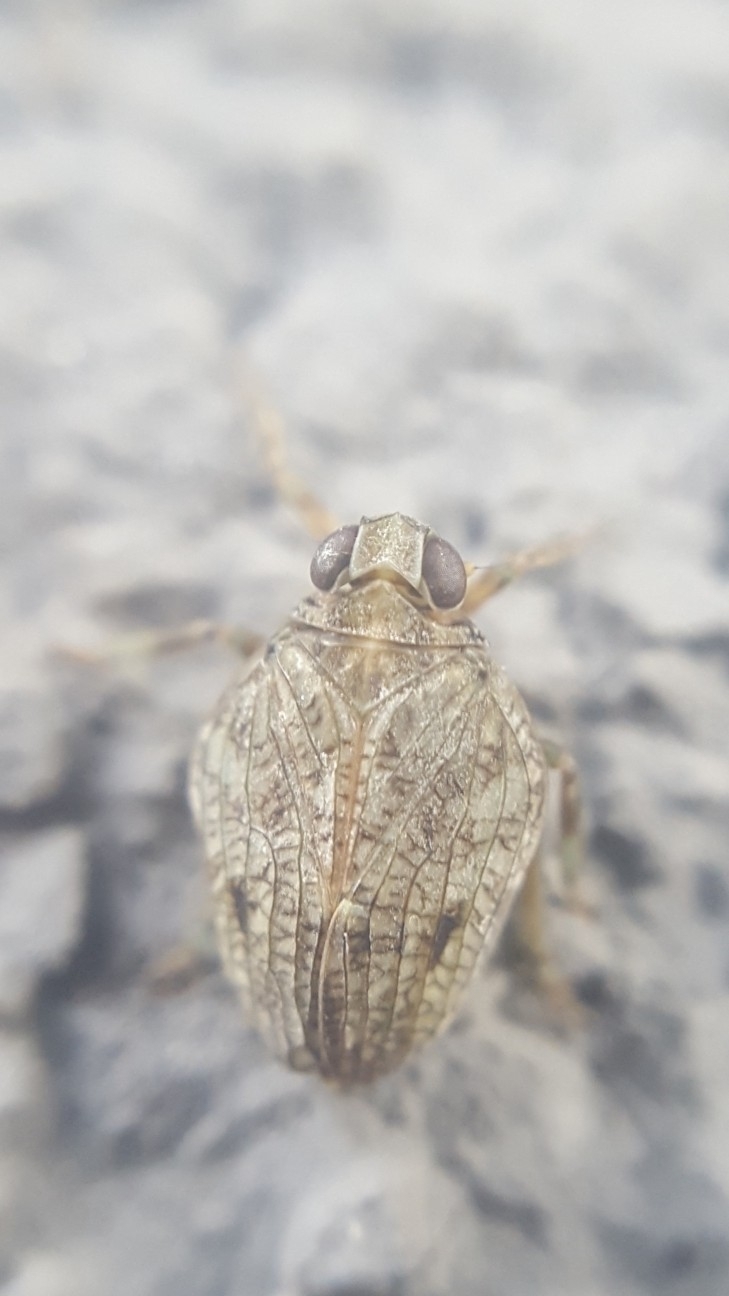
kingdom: Animalia
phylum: Arthropoda
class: Insecta
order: Hemiptera
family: Issidae
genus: Issus
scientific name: Issus coleoptratus
